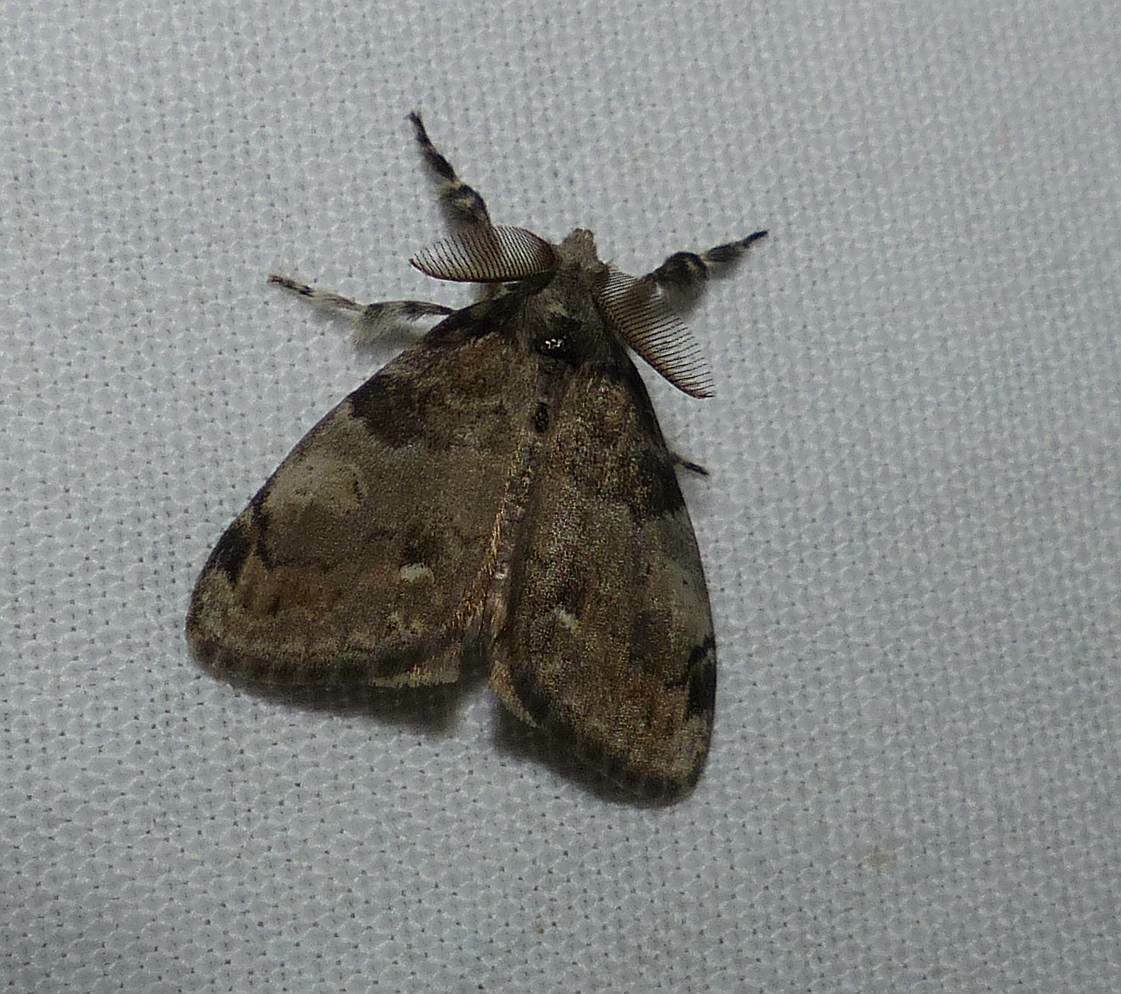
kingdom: Animalia
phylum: Arthropoda
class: Insecta
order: Lepidoptera
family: Erebidae
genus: Orgyia
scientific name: Orgyia leucostigma
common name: White-marked tussock moth
